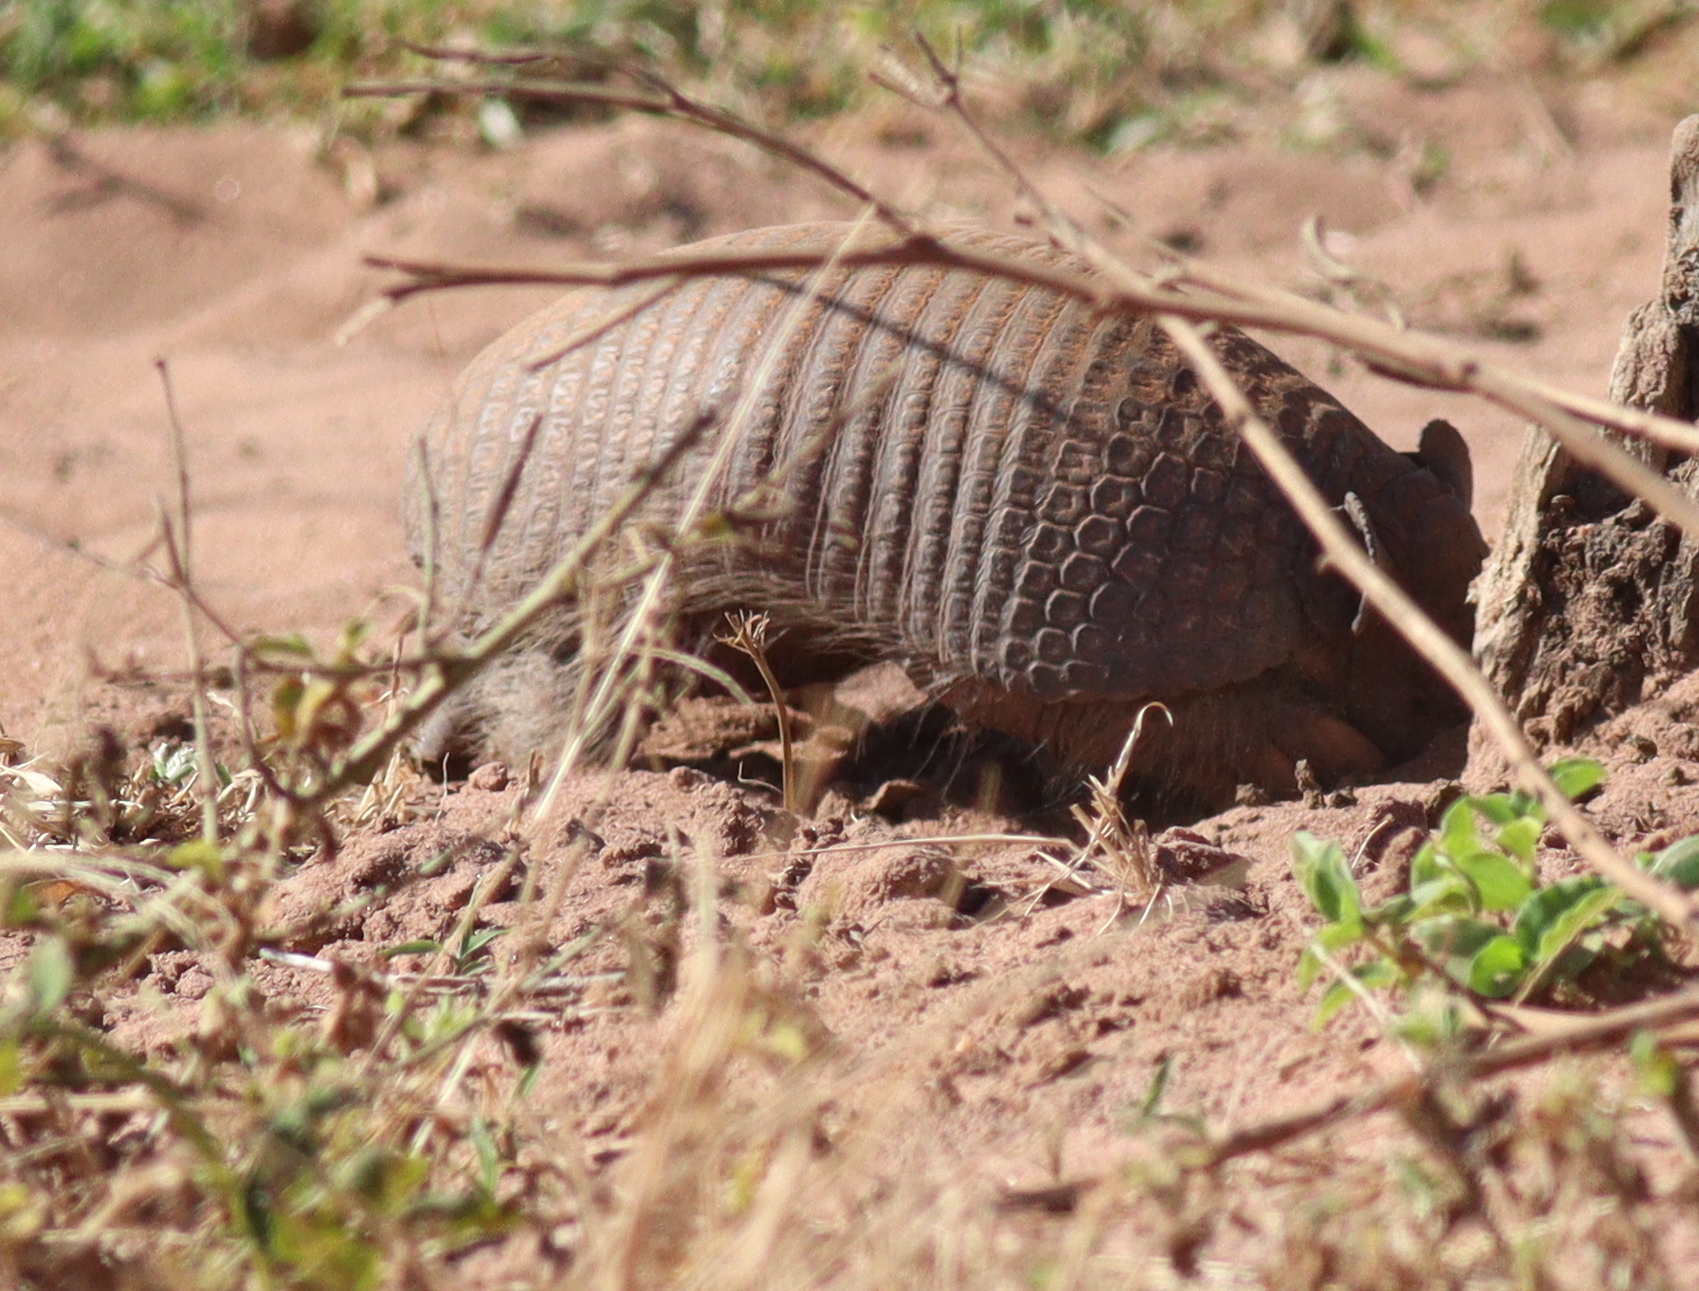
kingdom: Animalia
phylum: Chordata
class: Mammalia
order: Cingulata
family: Dasypodidae
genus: Cabassous
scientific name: Cabassous unicinctus
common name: Southern naked-tailed armadillo
